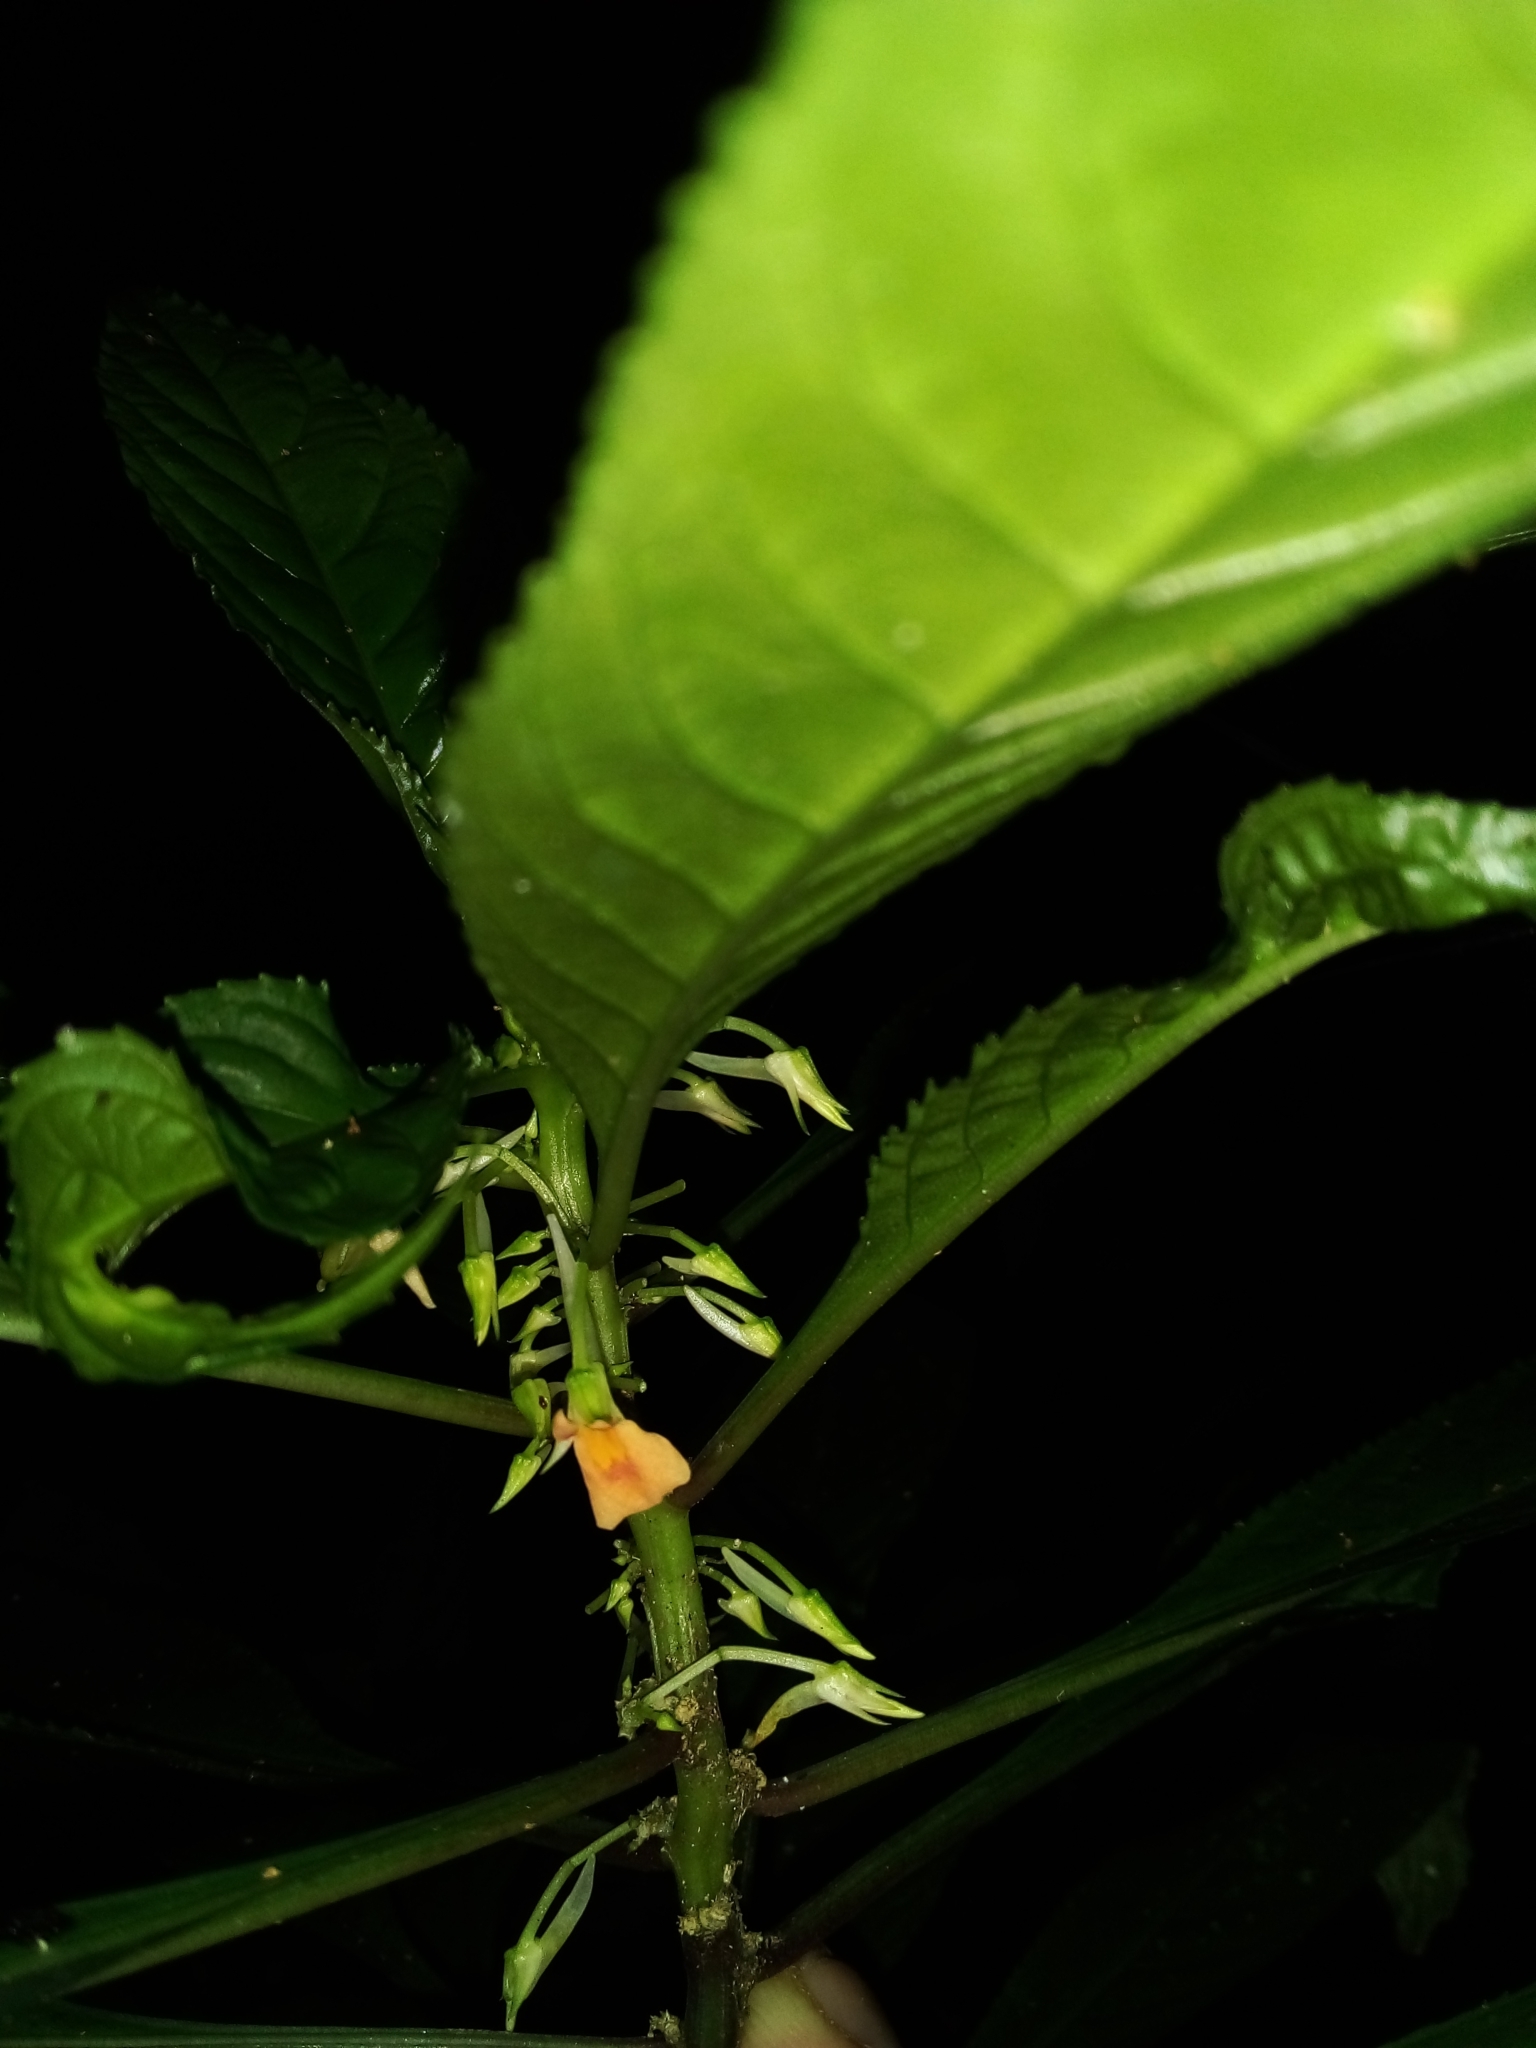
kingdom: Plantae
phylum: Tracheophyta
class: Magnoliopsida
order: Malpighiales
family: Violaceae
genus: Noisettia
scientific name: Noisettia orchidiflora
